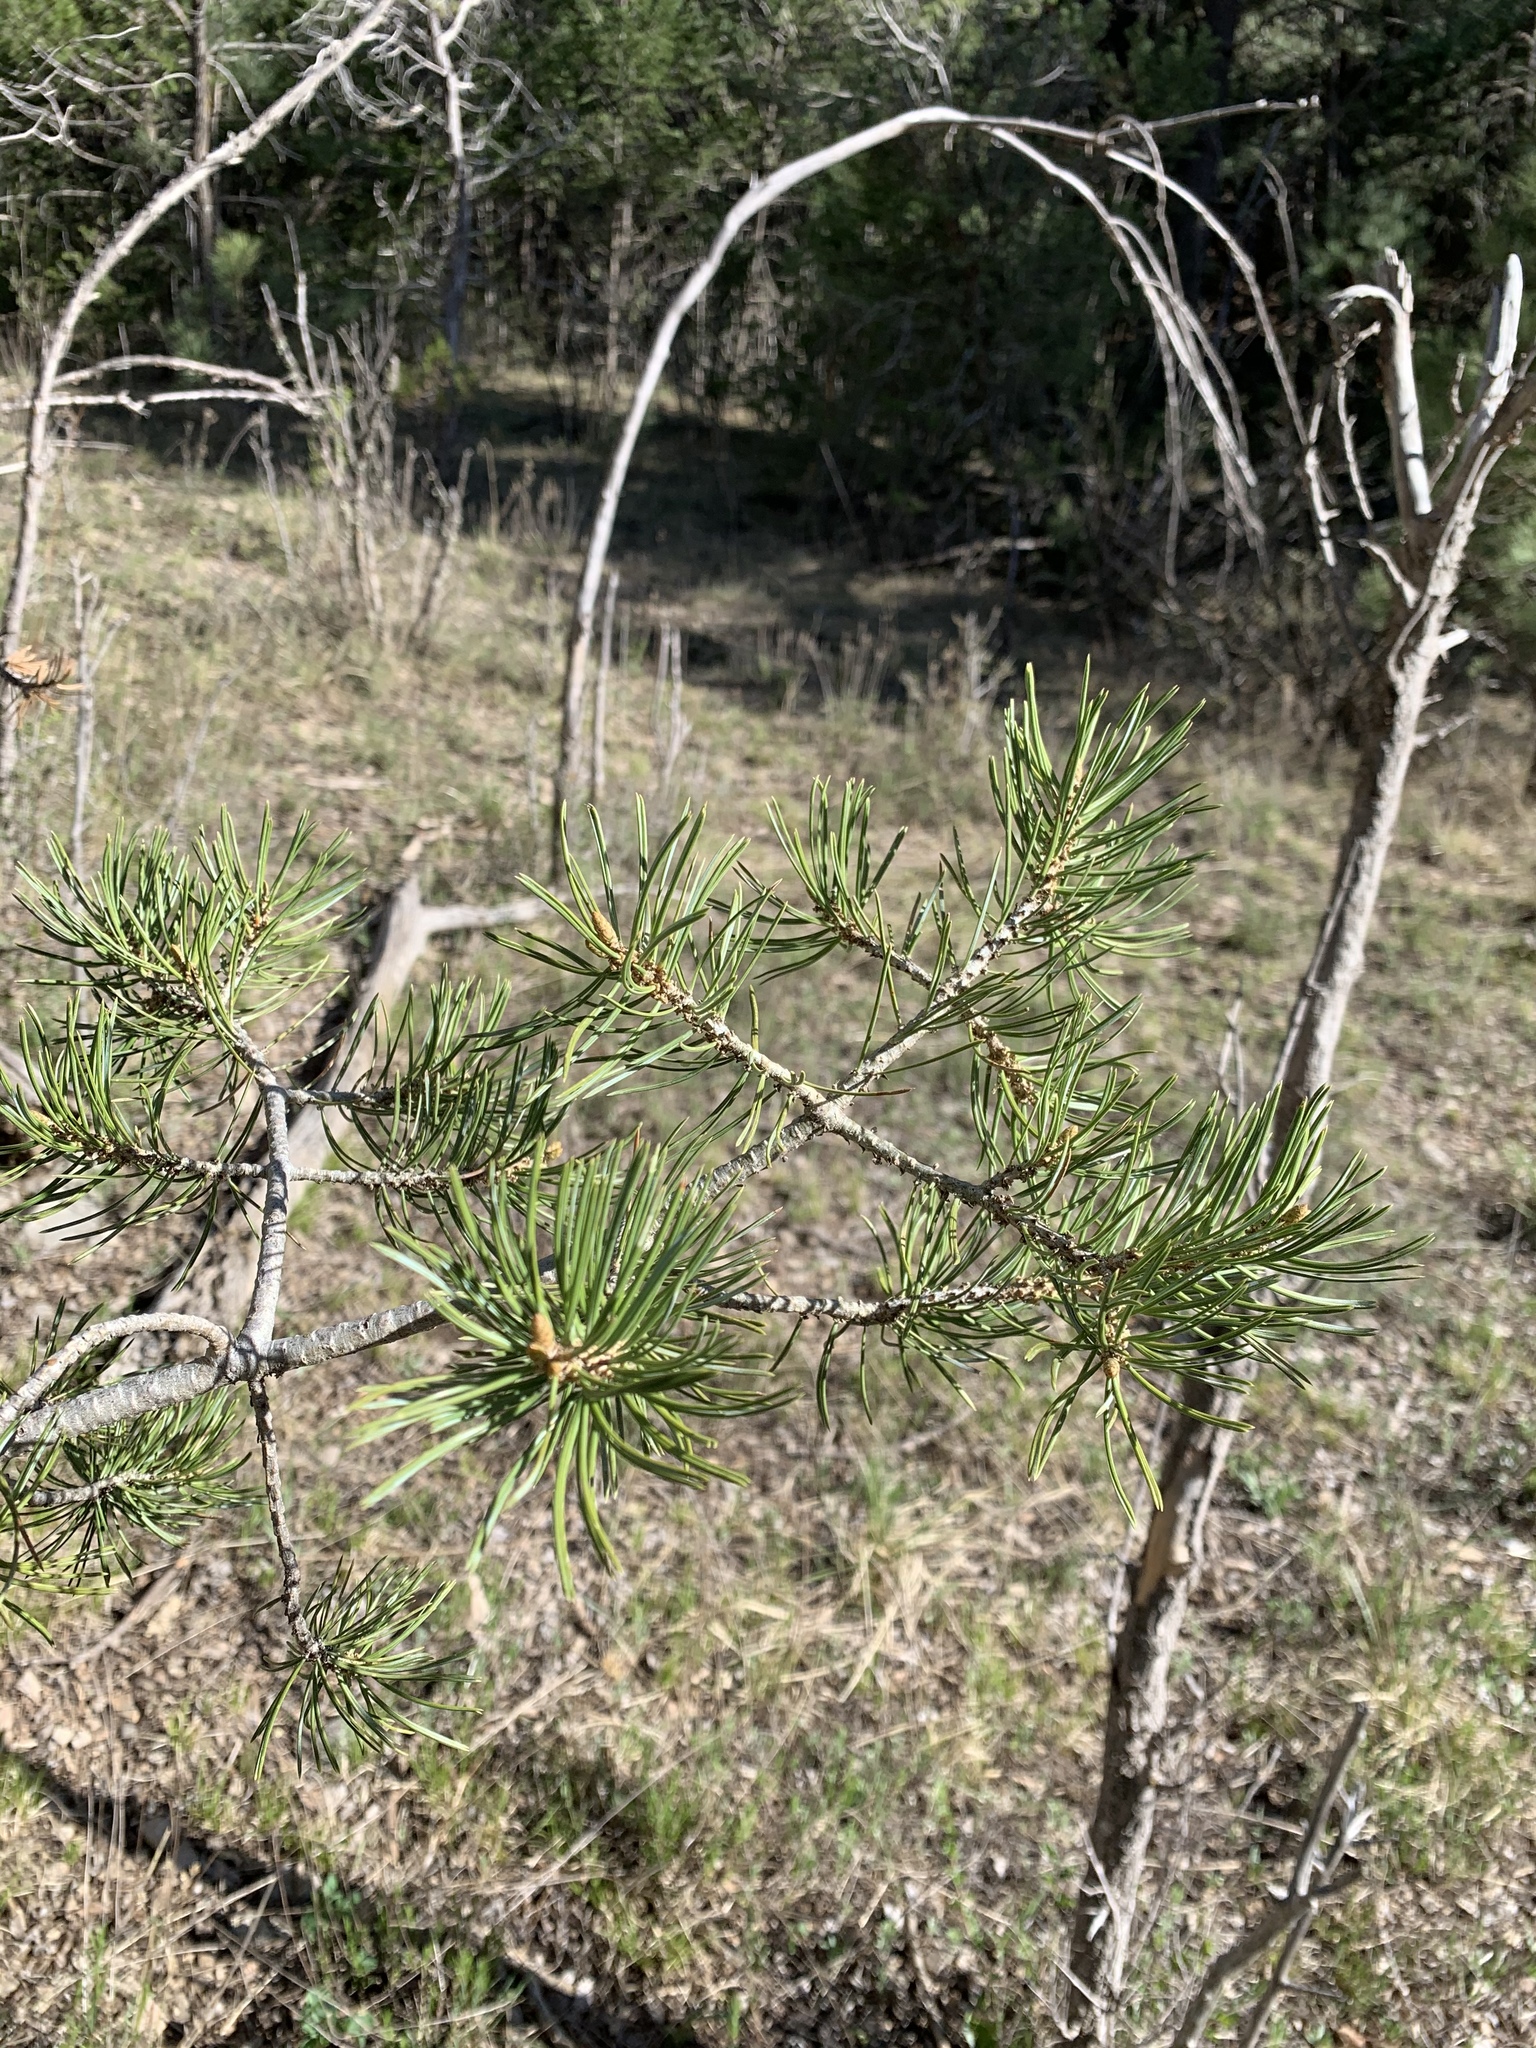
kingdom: Plantae
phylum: Tracheophyta
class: Pinopsida
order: Pinales
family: Pinaceae
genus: Pinus
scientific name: Pinus edulis
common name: Colorado pinyon
